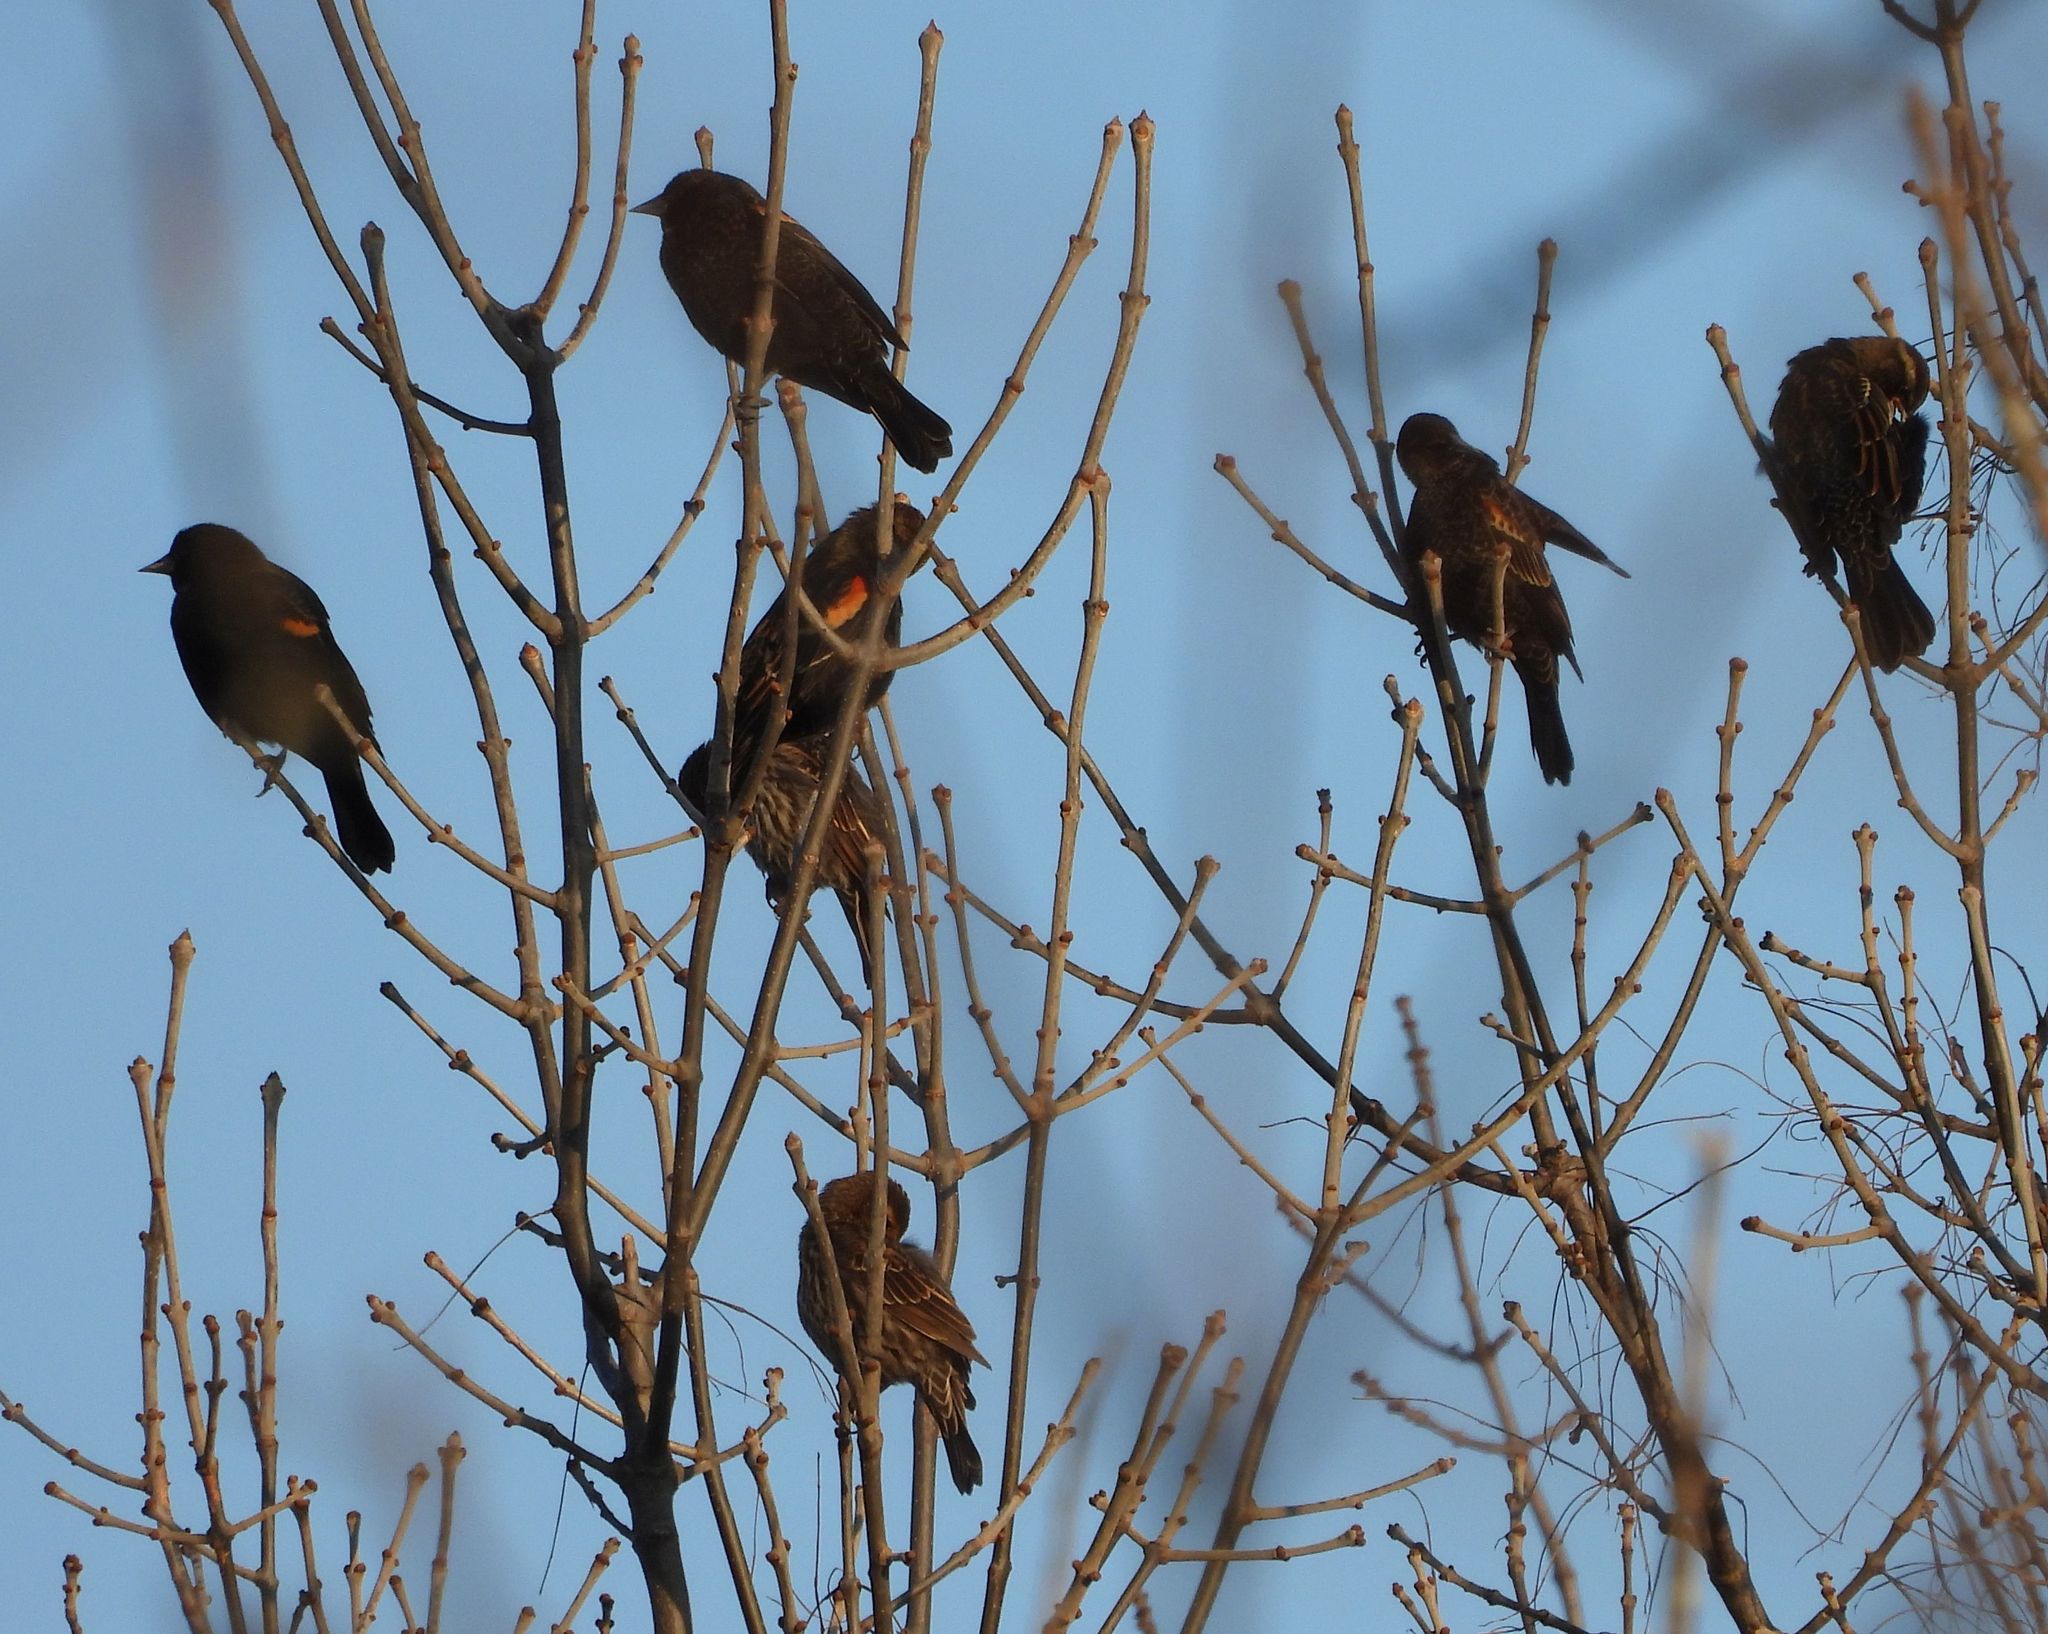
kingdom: Animalia
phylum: Chordata
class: Aves
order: Passeriformes
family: Icteridae
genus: Agelaius
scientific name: Agelaius phoeniceus
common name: Red-winged blackbird
